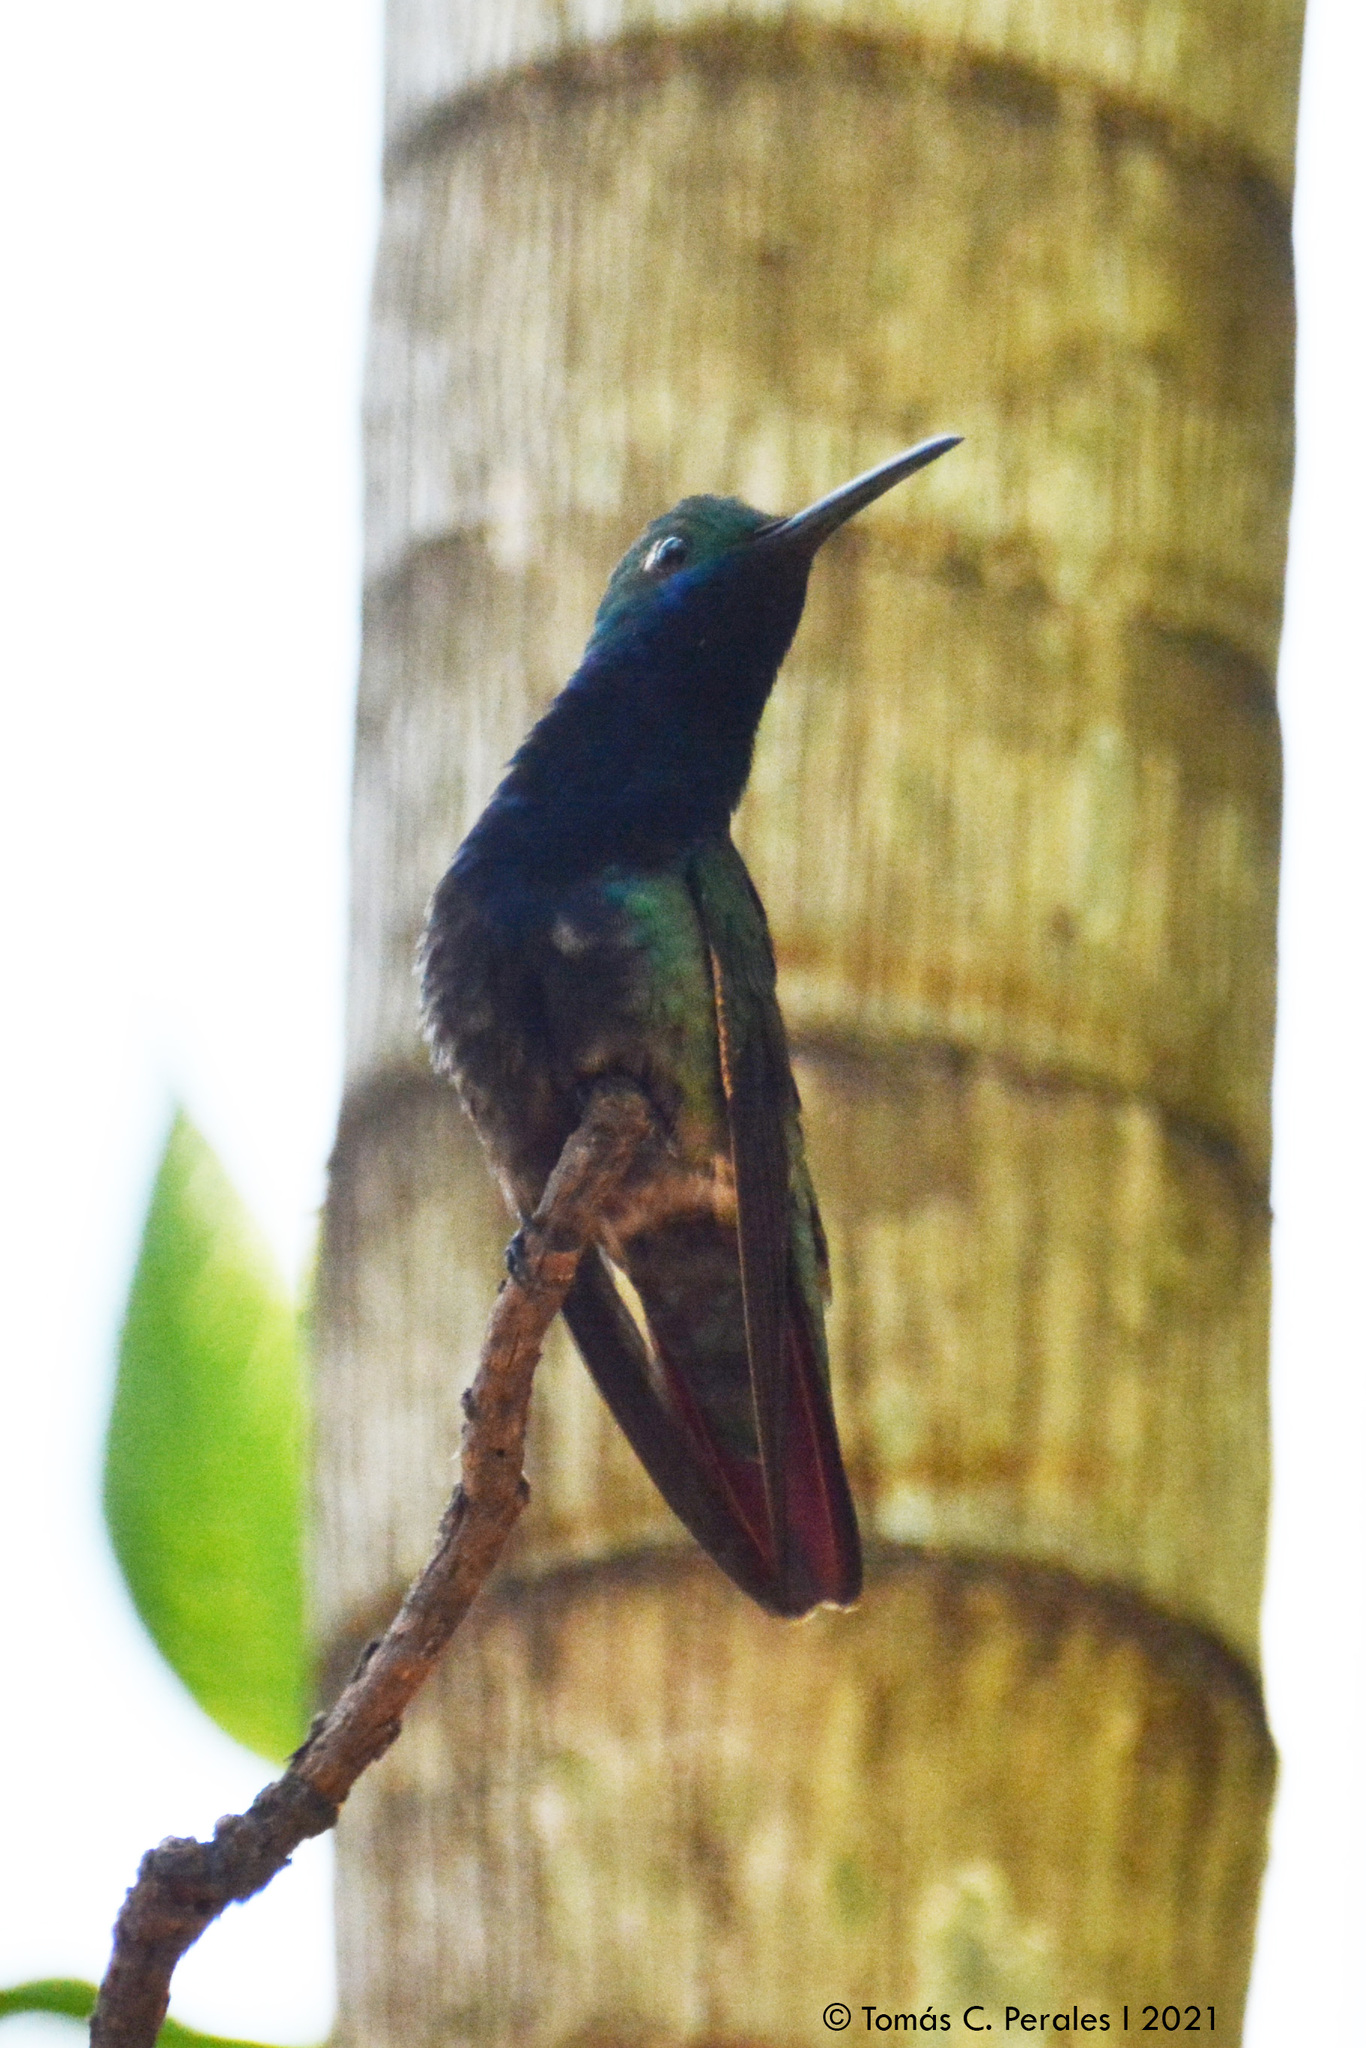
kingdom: Animalia
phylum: Chordata
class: Aves
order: Apodiformes
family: Trochilidae
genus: Anthracothorax
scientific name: Anthracothorax nigricollis
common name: Black-throated mango
